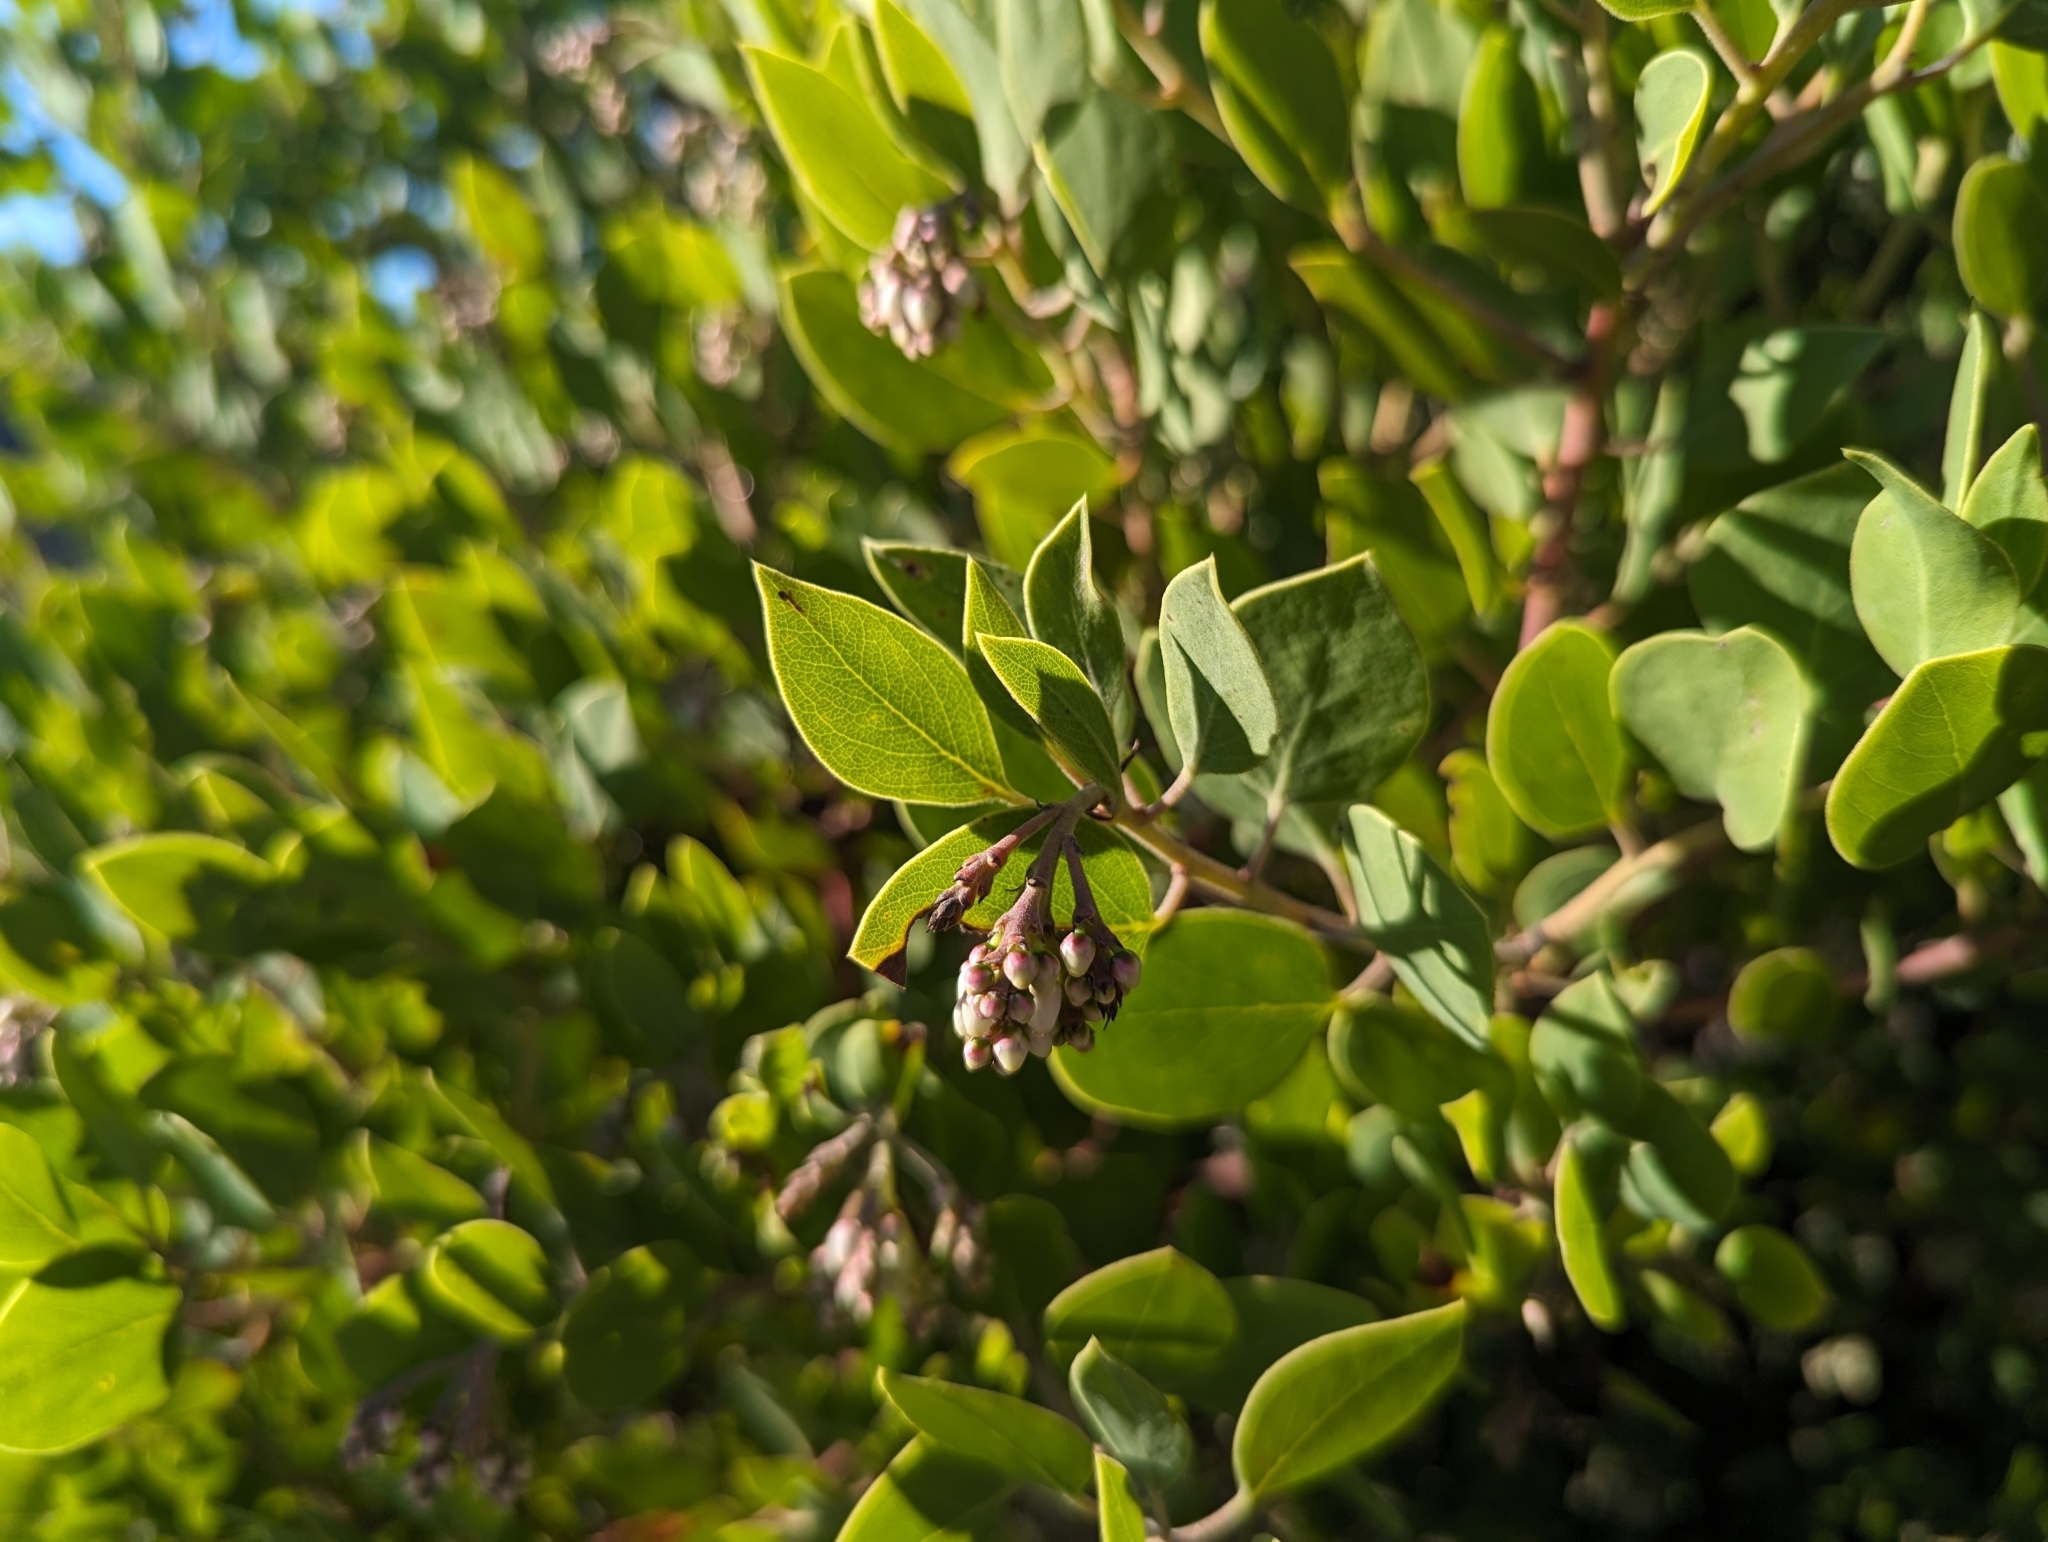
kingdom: Plantae
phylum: Tracheophyta
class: Magnoliopsida
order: Ericales
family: Ericaceae
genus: Arctostaphylos
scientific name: Arctostaphylos manzanita
